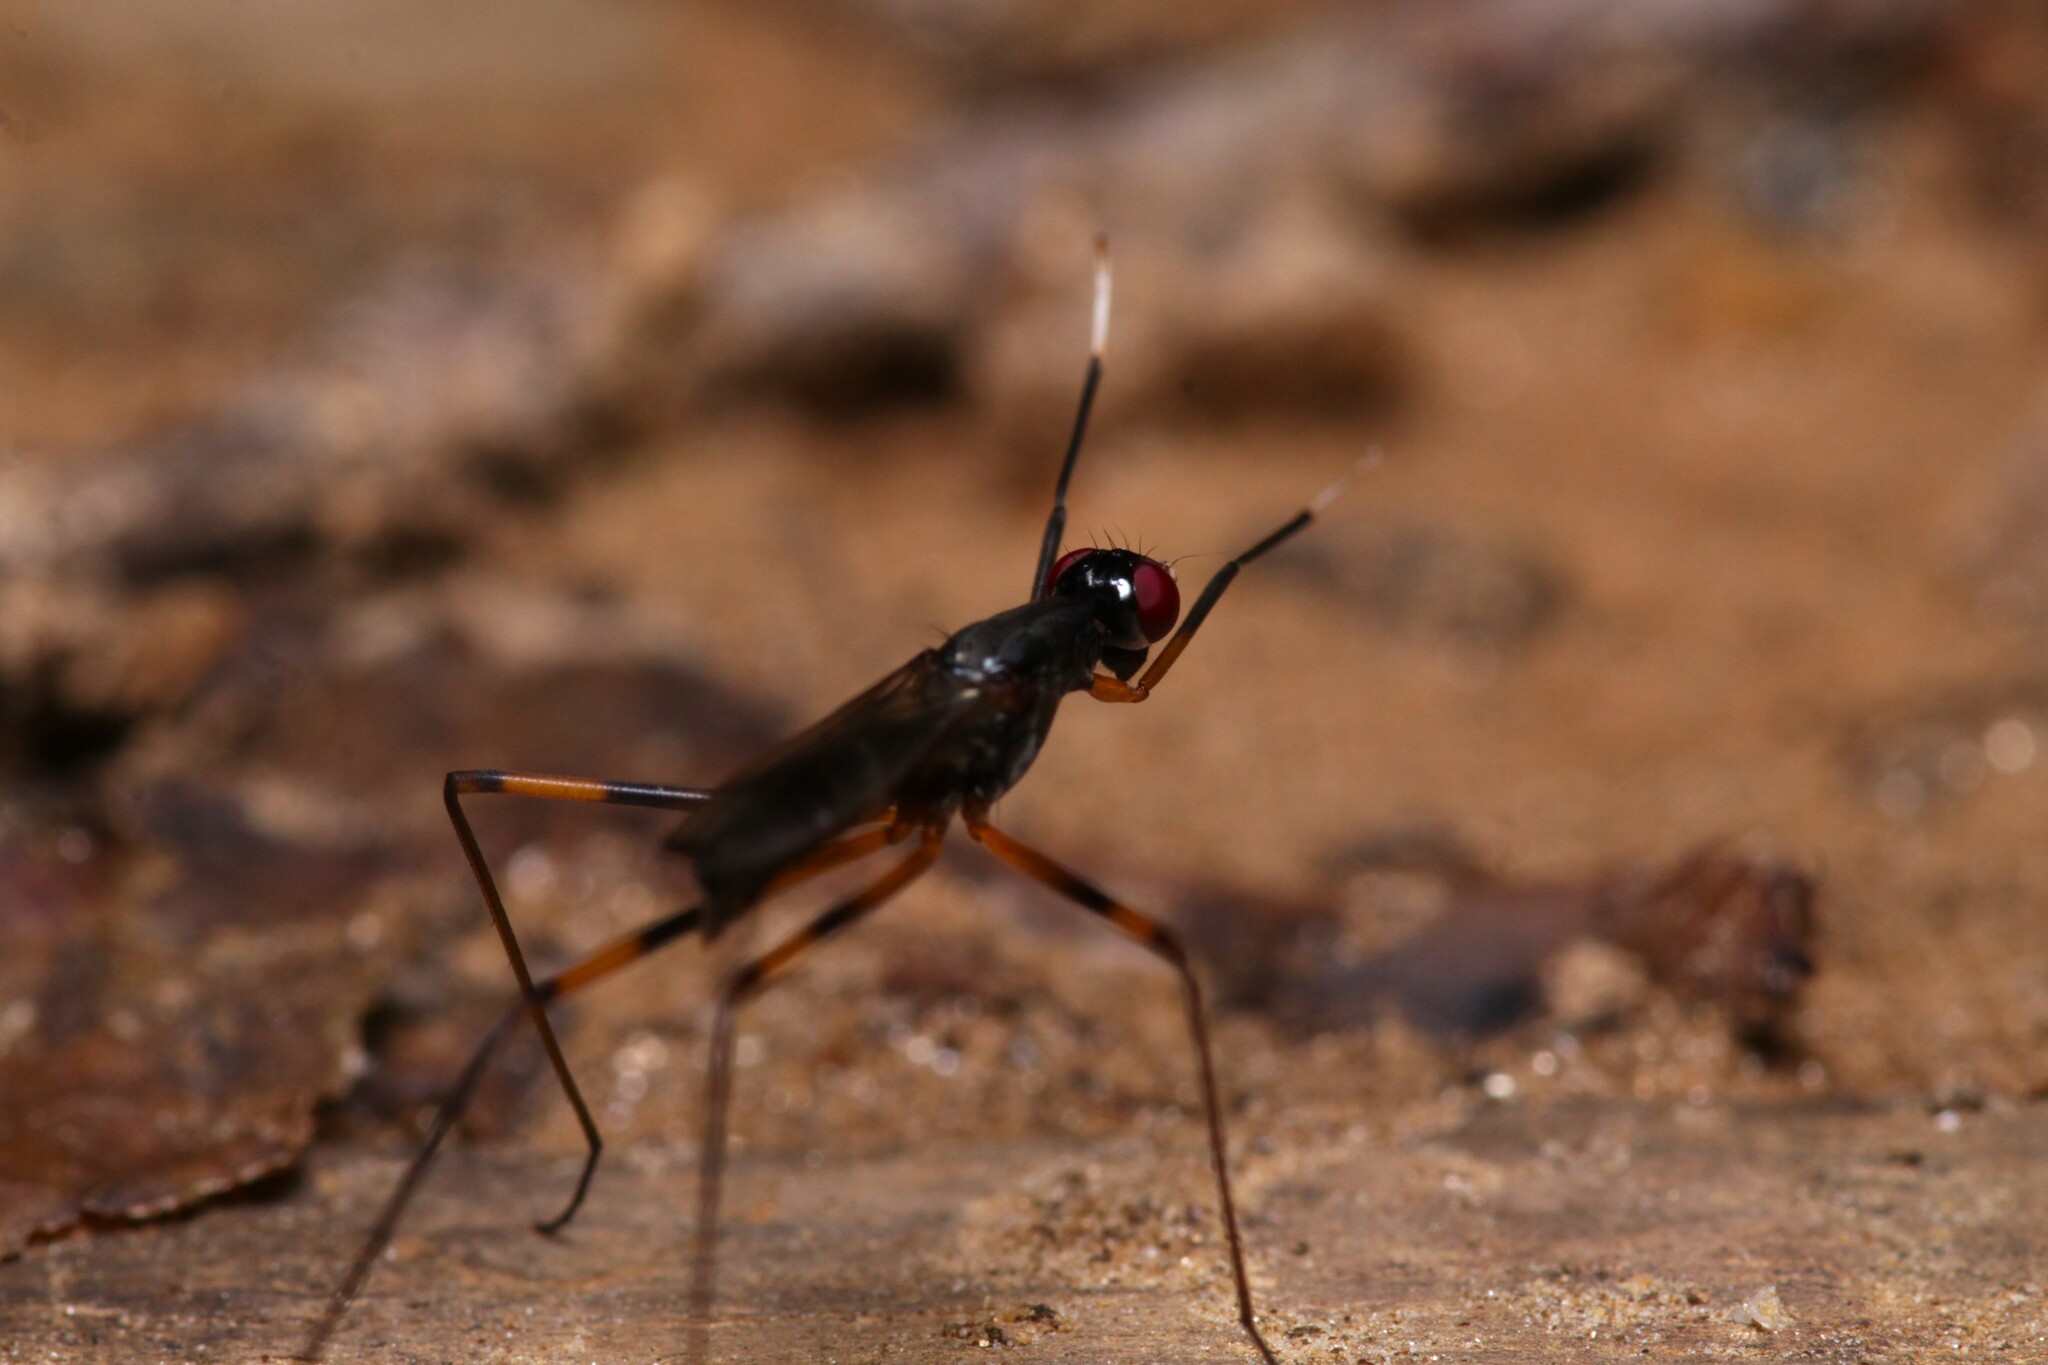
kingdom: Animalia
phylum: Arthropoda
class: Insecta
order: Diptera
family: Micropezidae
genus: Rainieria
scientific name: Rainieria antennaepes
